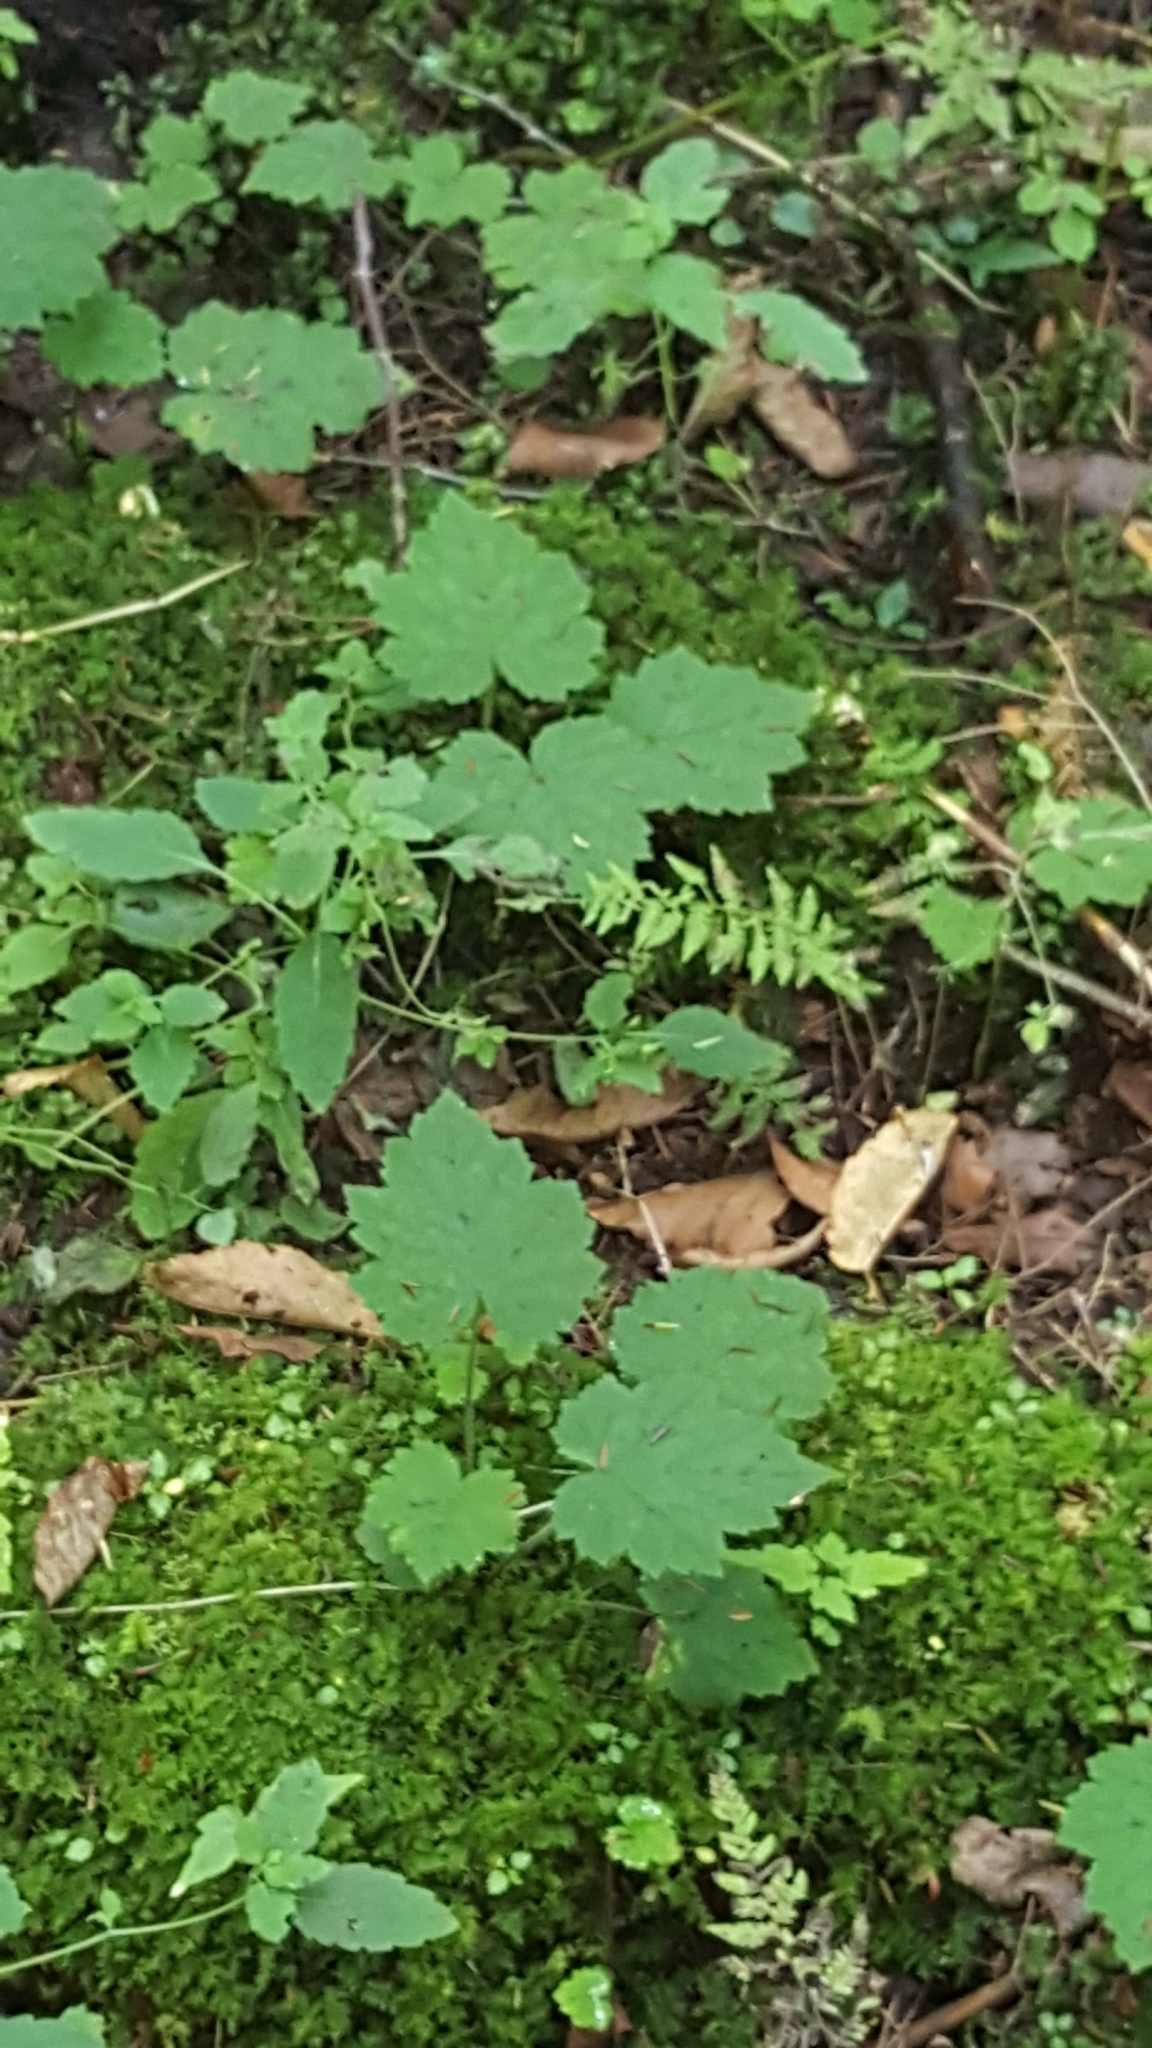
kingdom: Plantae
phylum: Tracheophyta
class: Magnoliopsida
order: Saxifragales
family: Saxifragaceae
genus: Tiarella
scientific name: Tiarella stolonifera
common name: Stoloniferous foamflower
